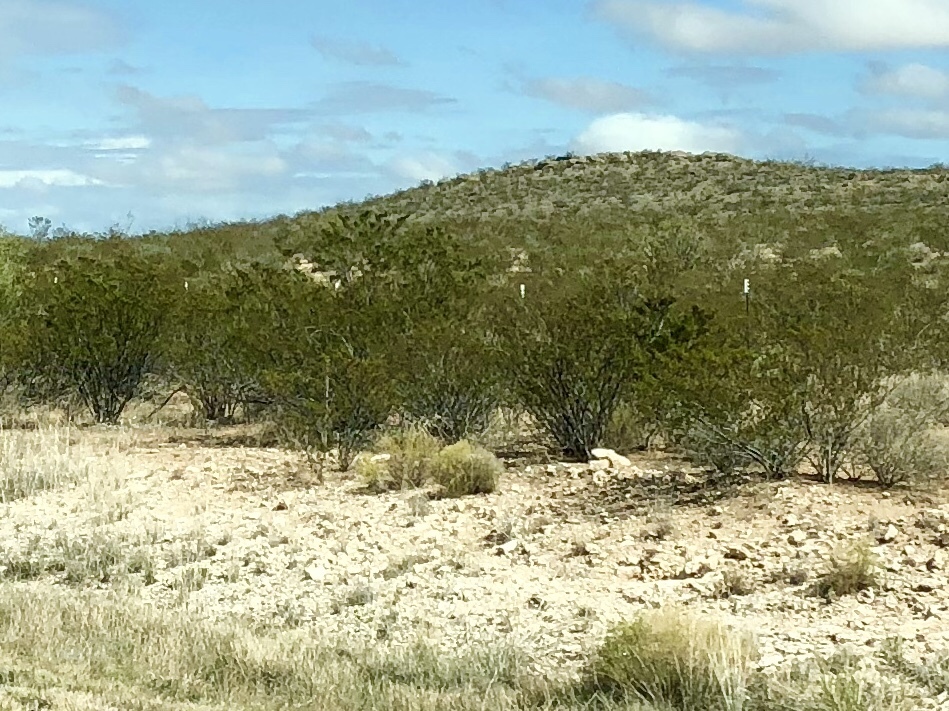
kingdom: Plantae
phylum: Tracheophyta
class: Magnoliopsida
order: Zygophyllales
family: Zygophyllaceae
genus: Larrea
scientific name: Larrea tridentata
